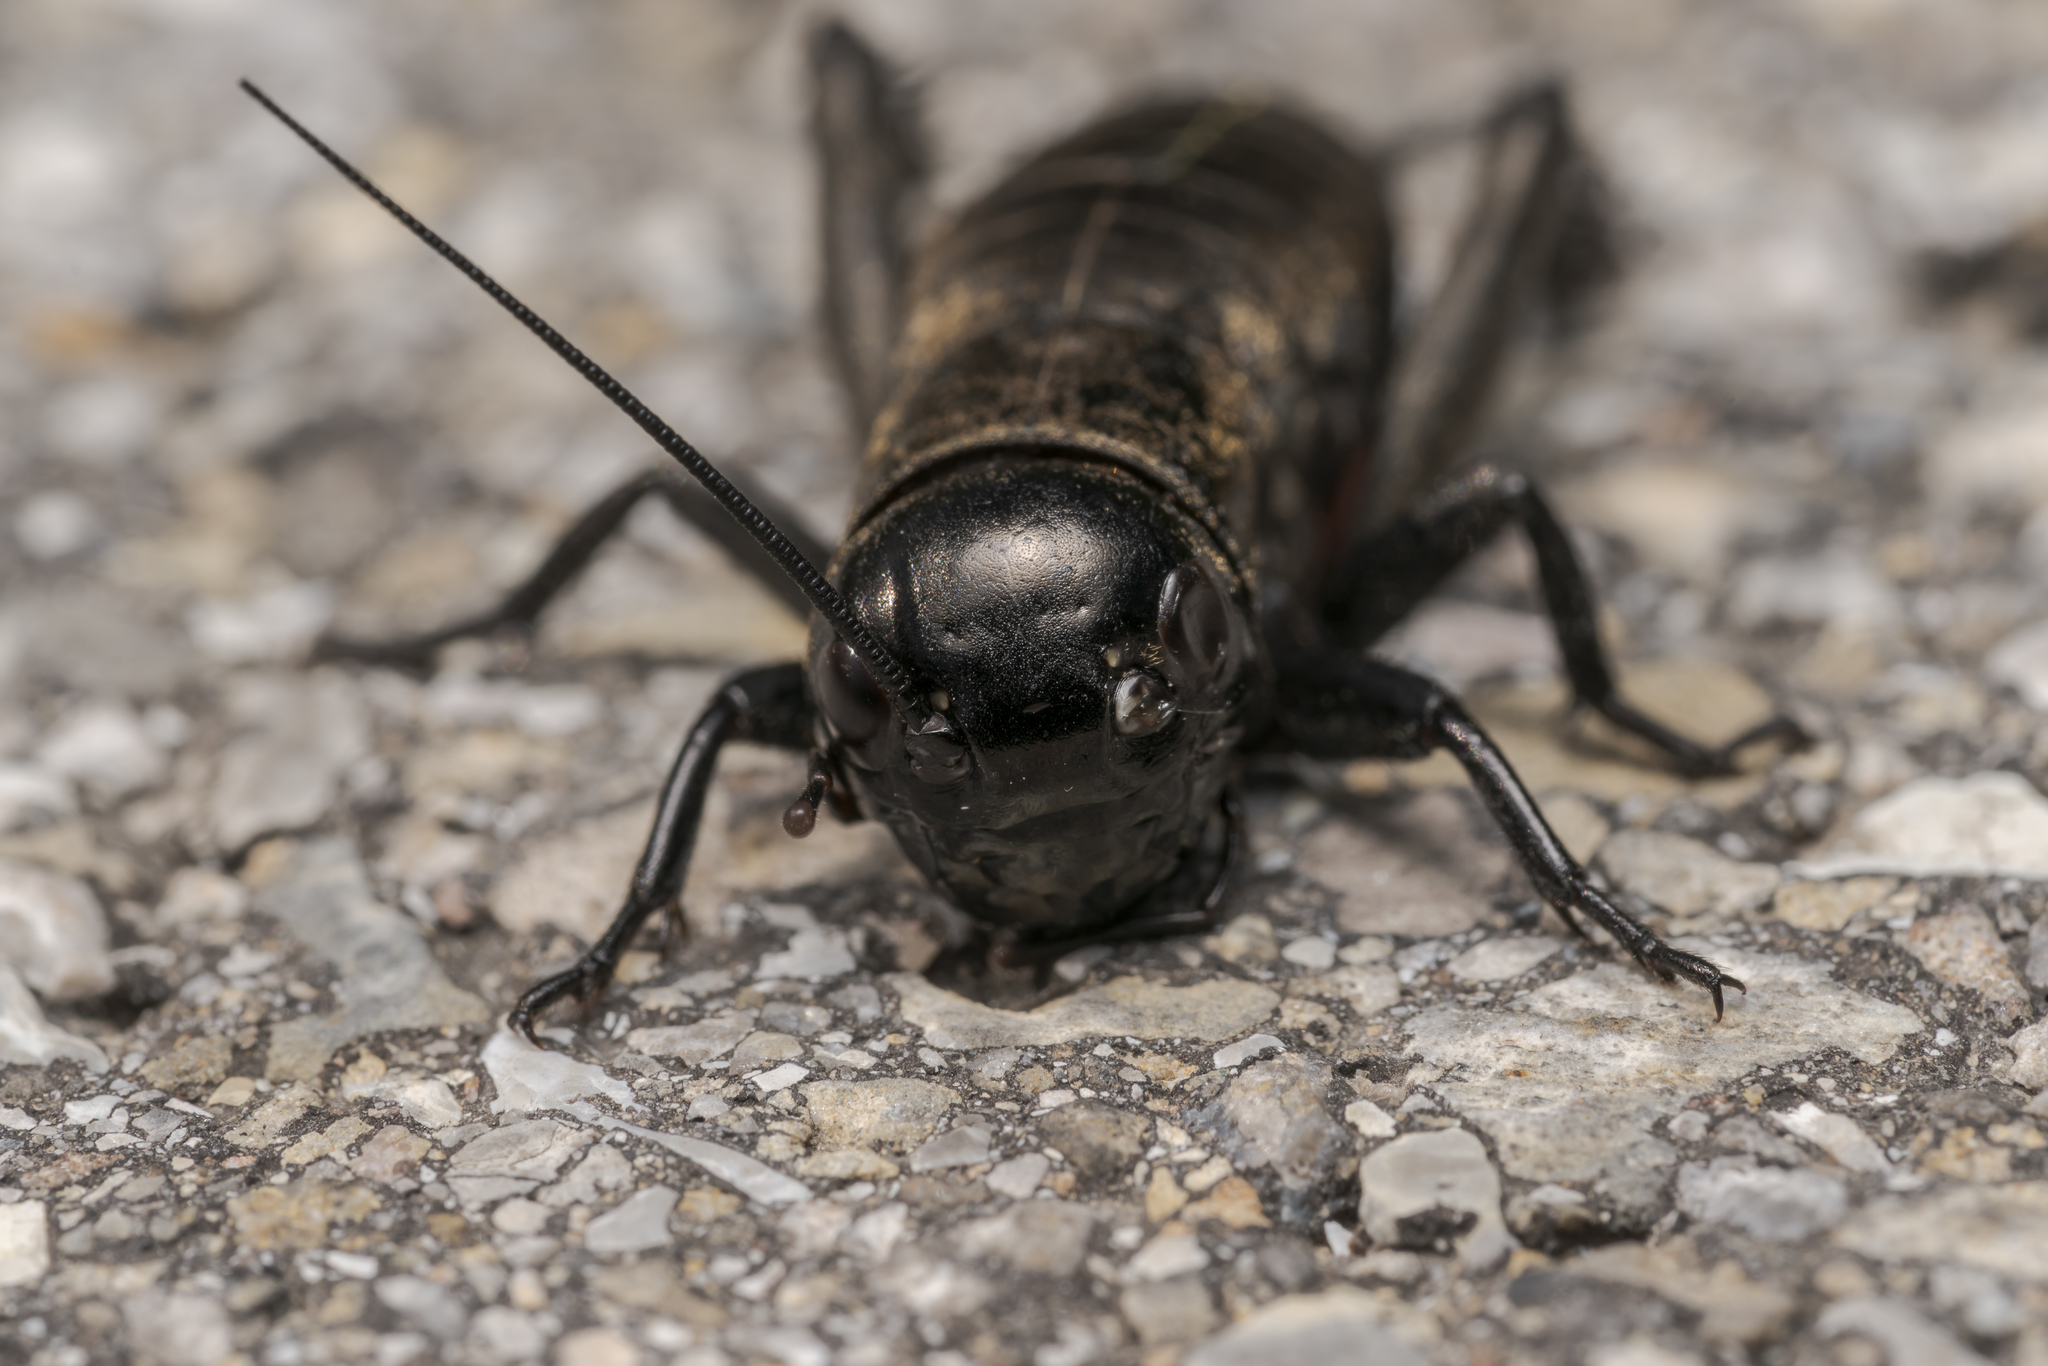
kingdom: Animalia
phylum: Arthropoda
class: Insecta
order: Orthoptera
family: Gryllidae
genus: Gryllus
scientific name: Gryllus campestris
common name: Field cricket
